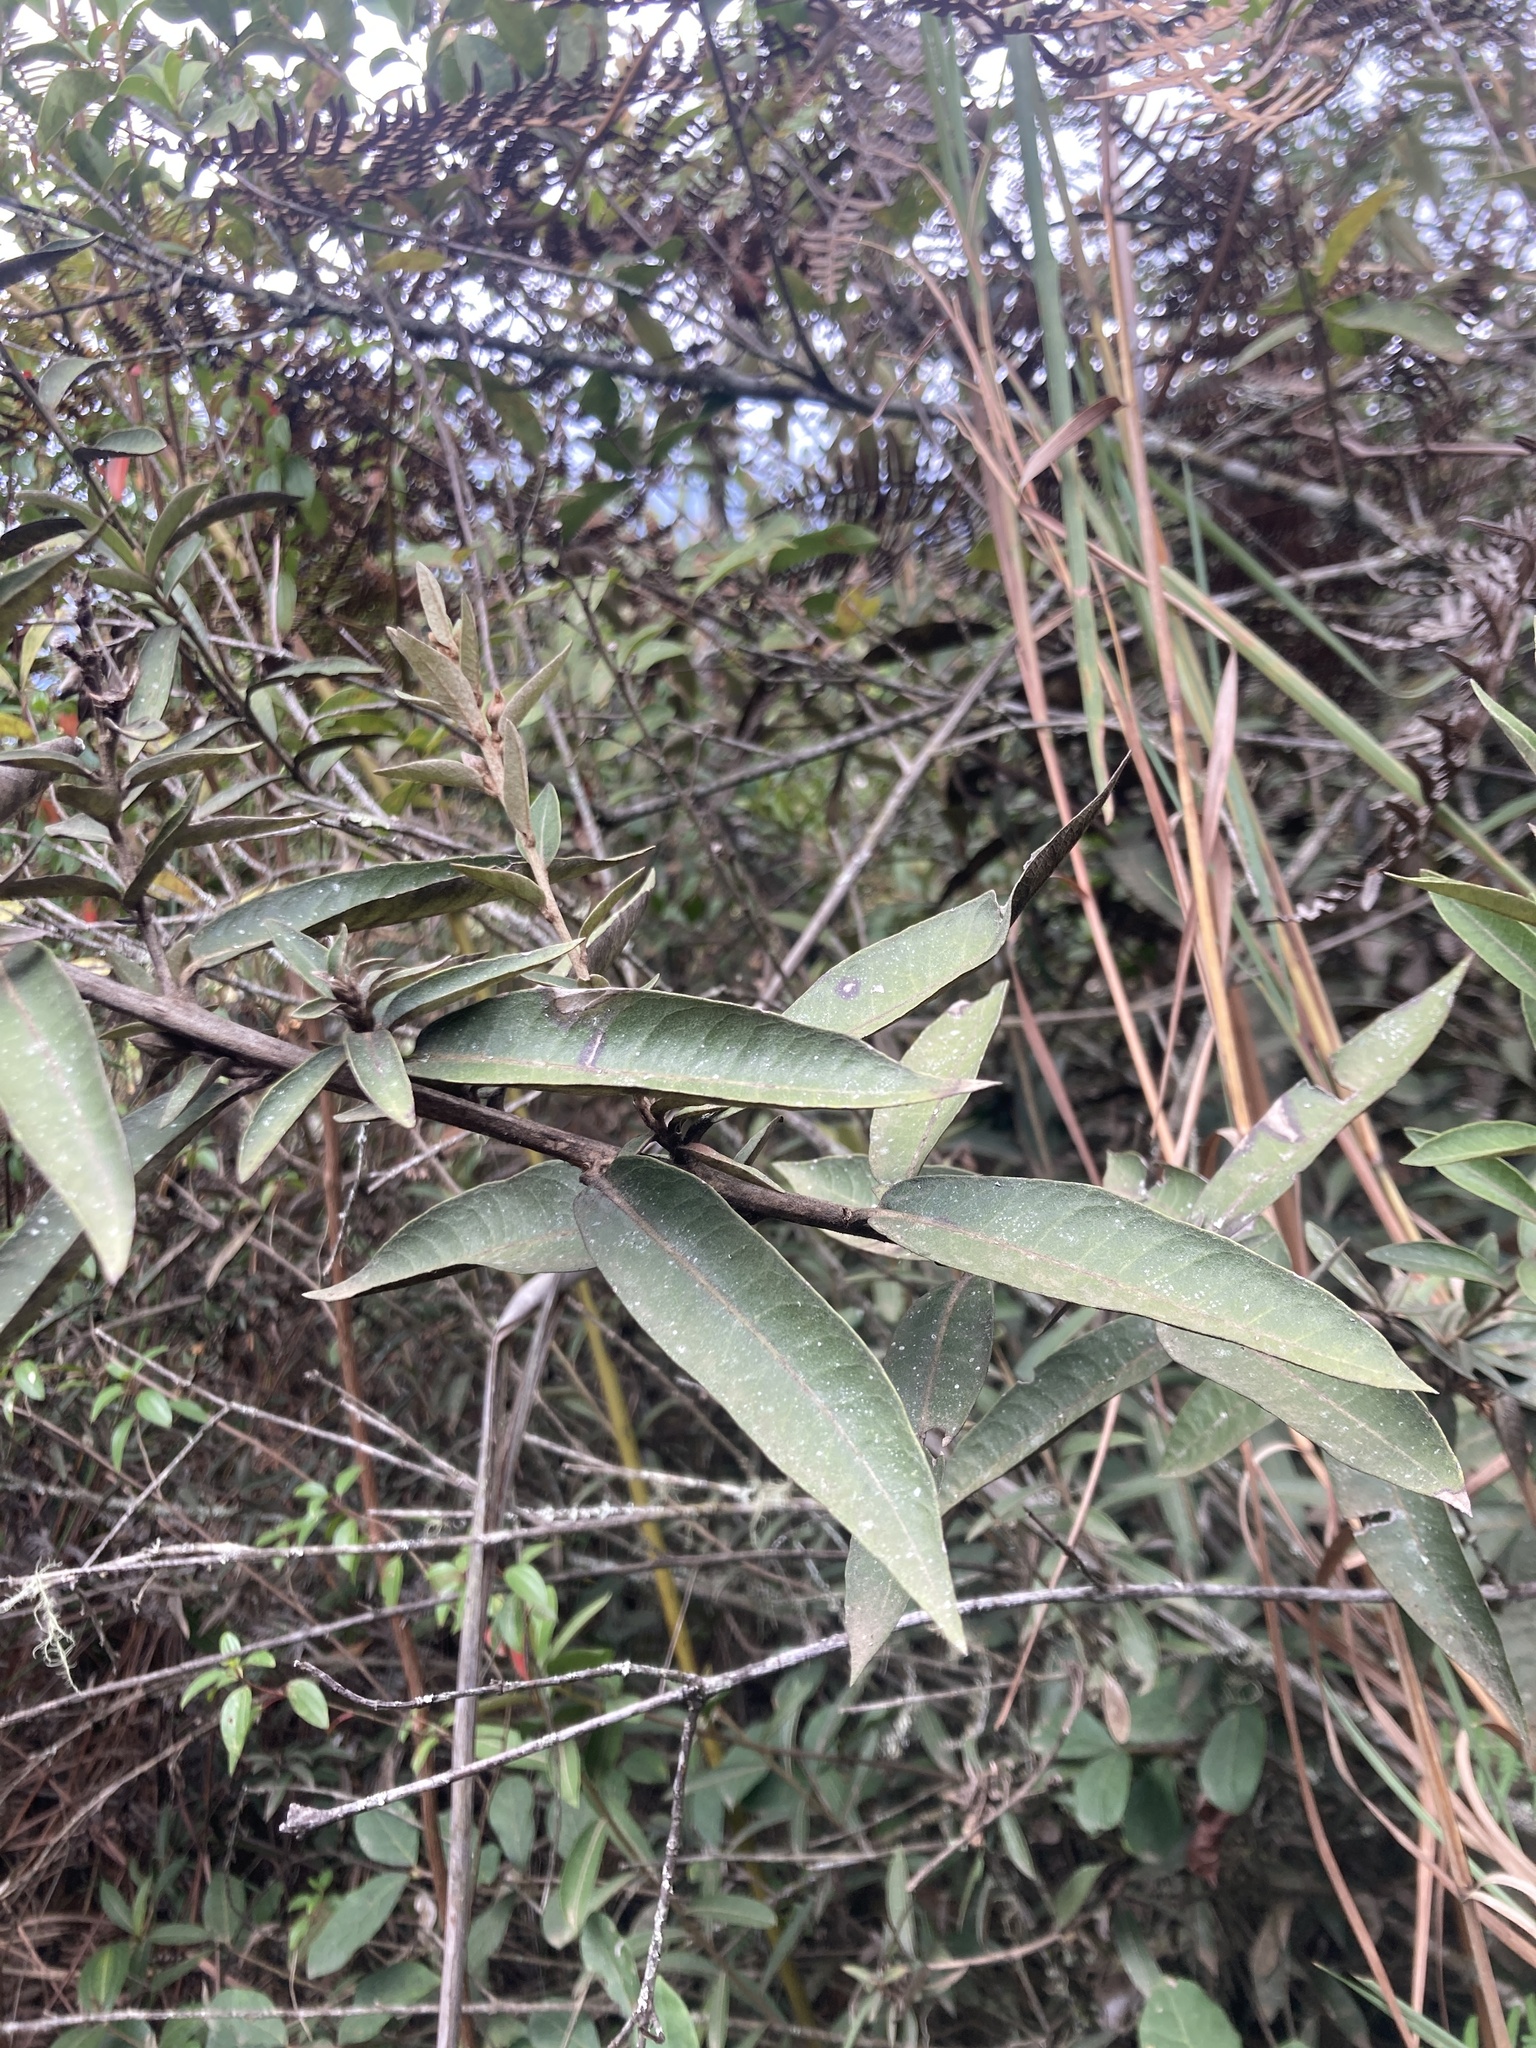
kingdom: Plantae
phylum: Tracheophyta
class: Magnoliopsida
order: Asterales
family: Asteraceae
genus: Lepidaploa
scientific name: Lepidaploa karstenii
